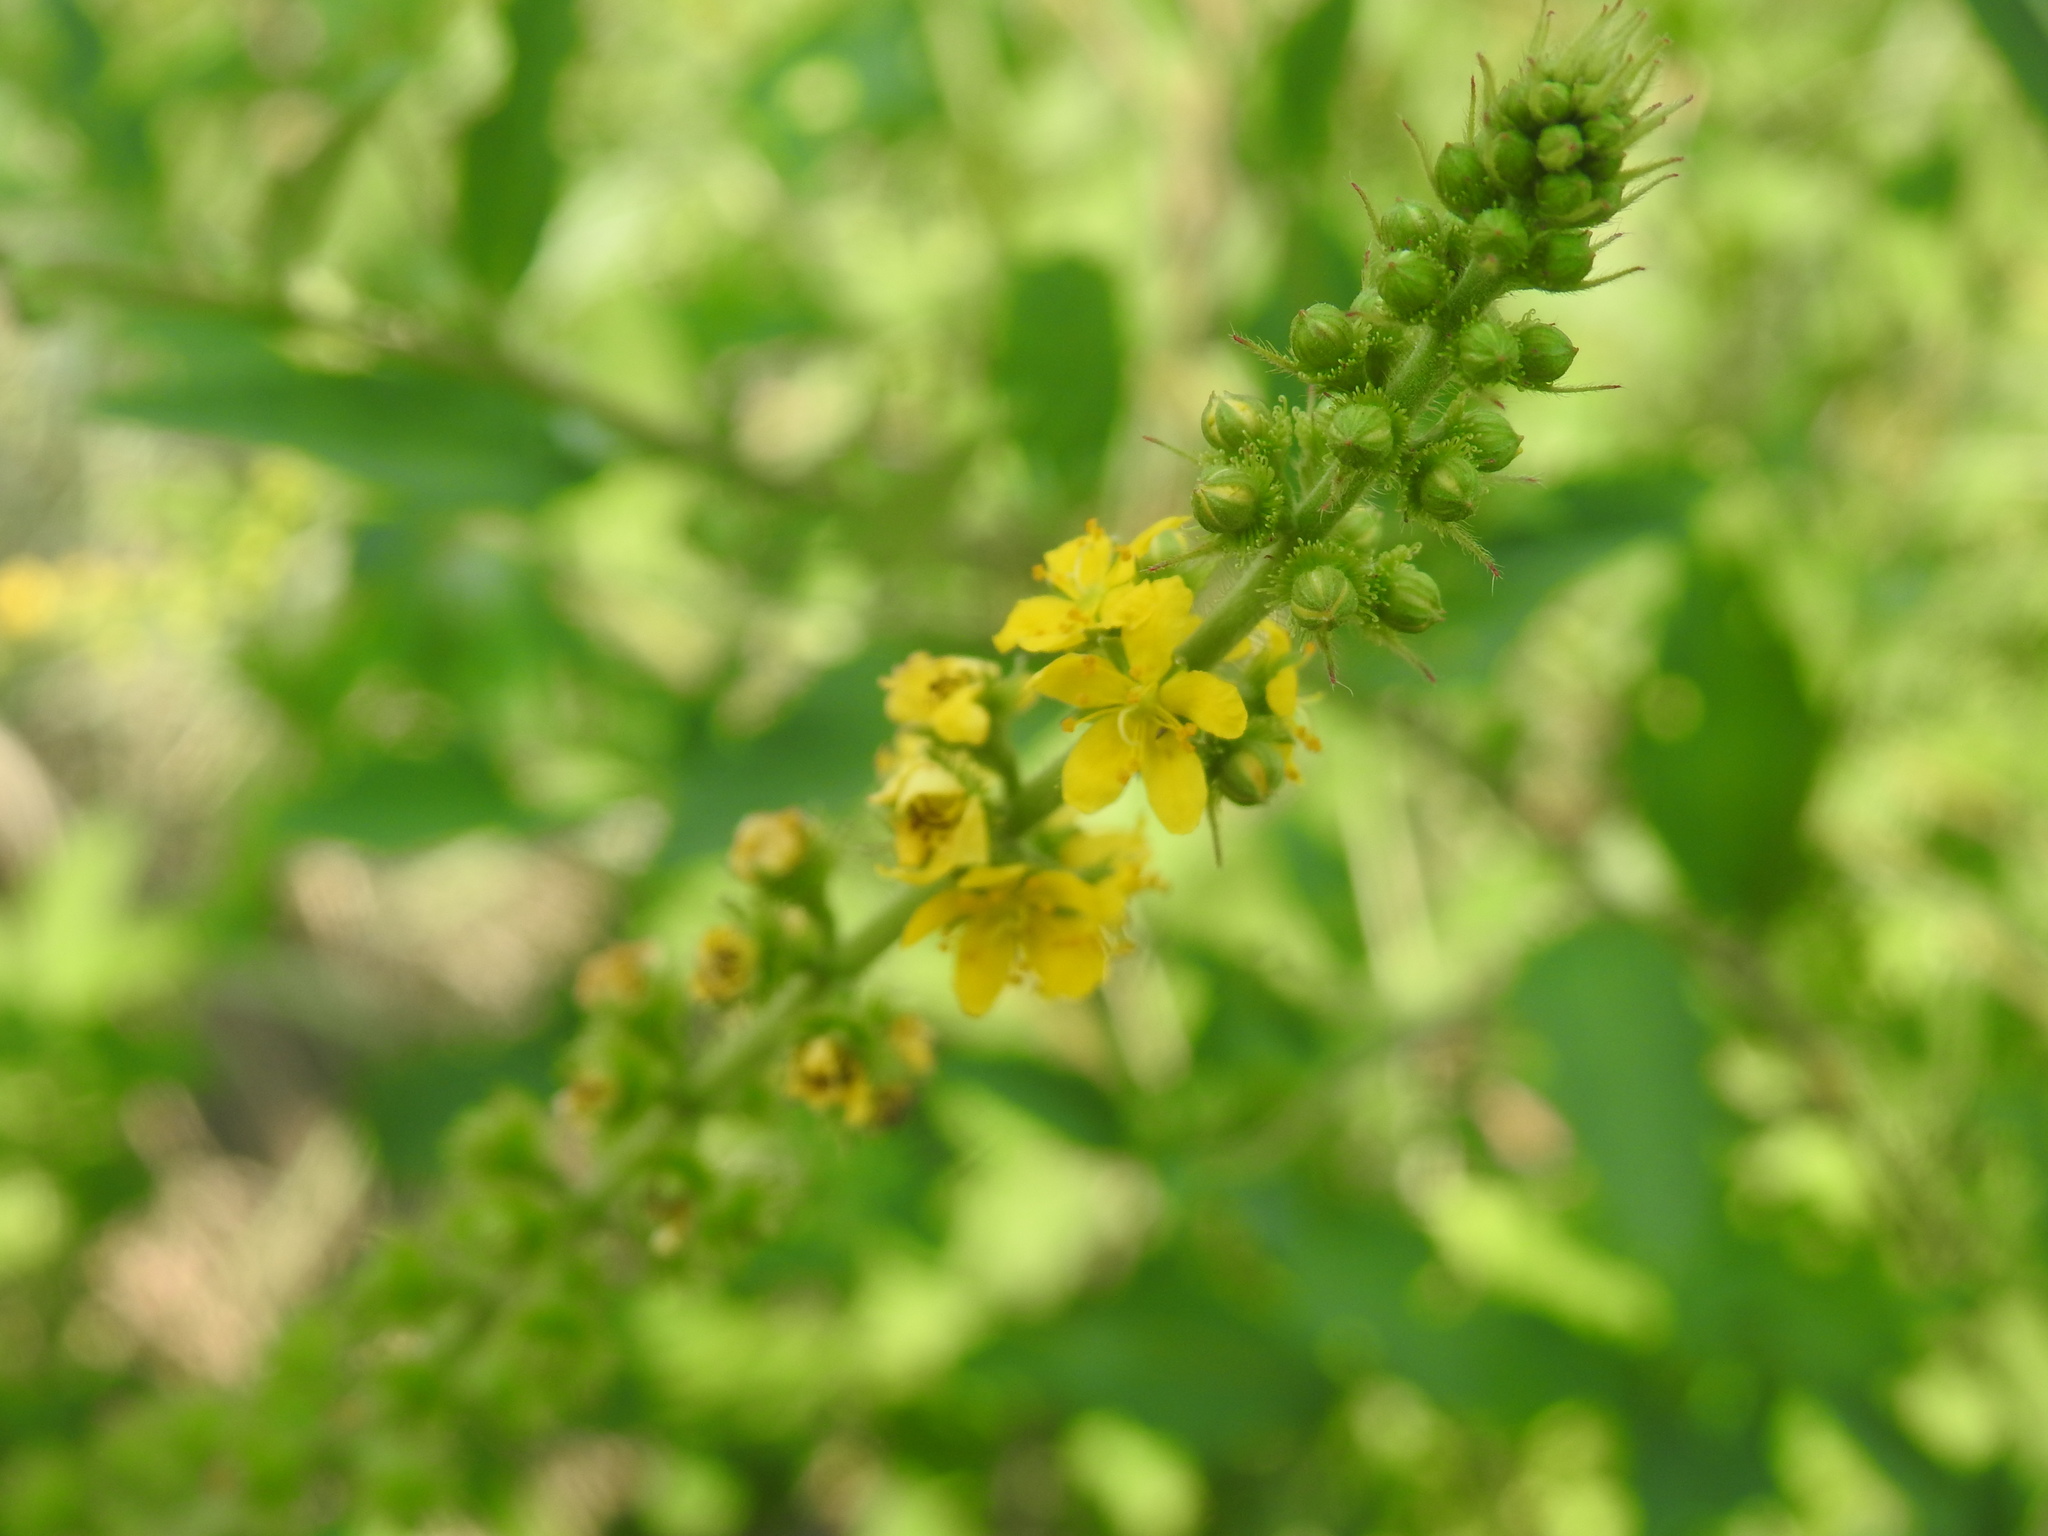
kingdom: Plantae
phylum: Tracheophyta
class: Magnoliopsida
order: Rosales
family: Rosaceae
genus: Agrimonia
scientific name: Agrimonia bracteata
